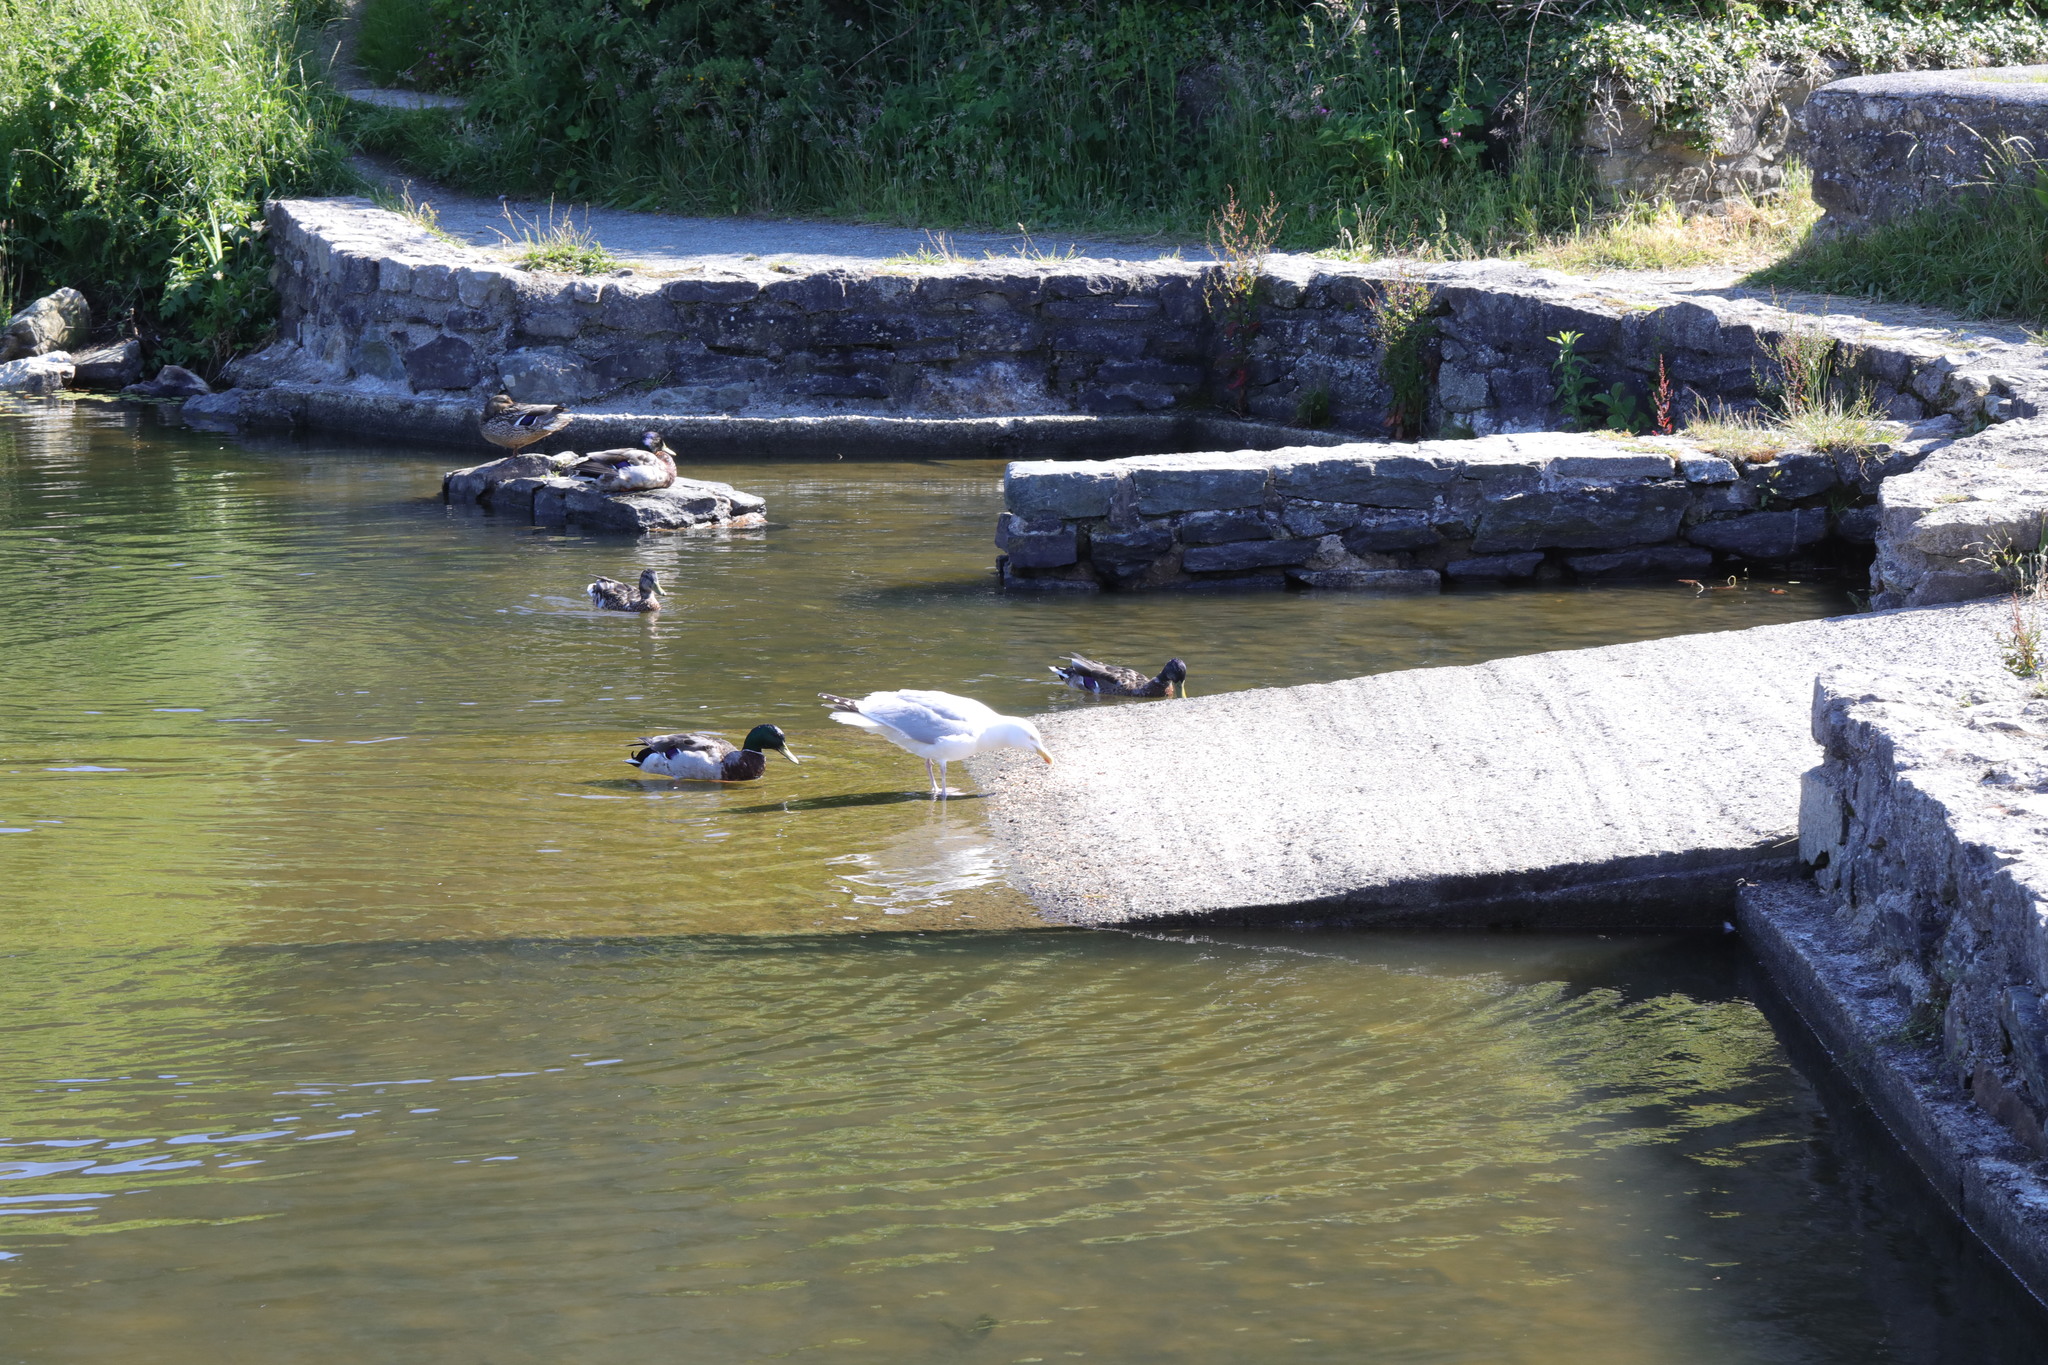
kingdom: Animalia
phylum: Chordata
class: Aves
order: Anseriformes
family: Anatidae
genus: Anas
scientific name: Anas platyrhynchos
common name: Mallard
